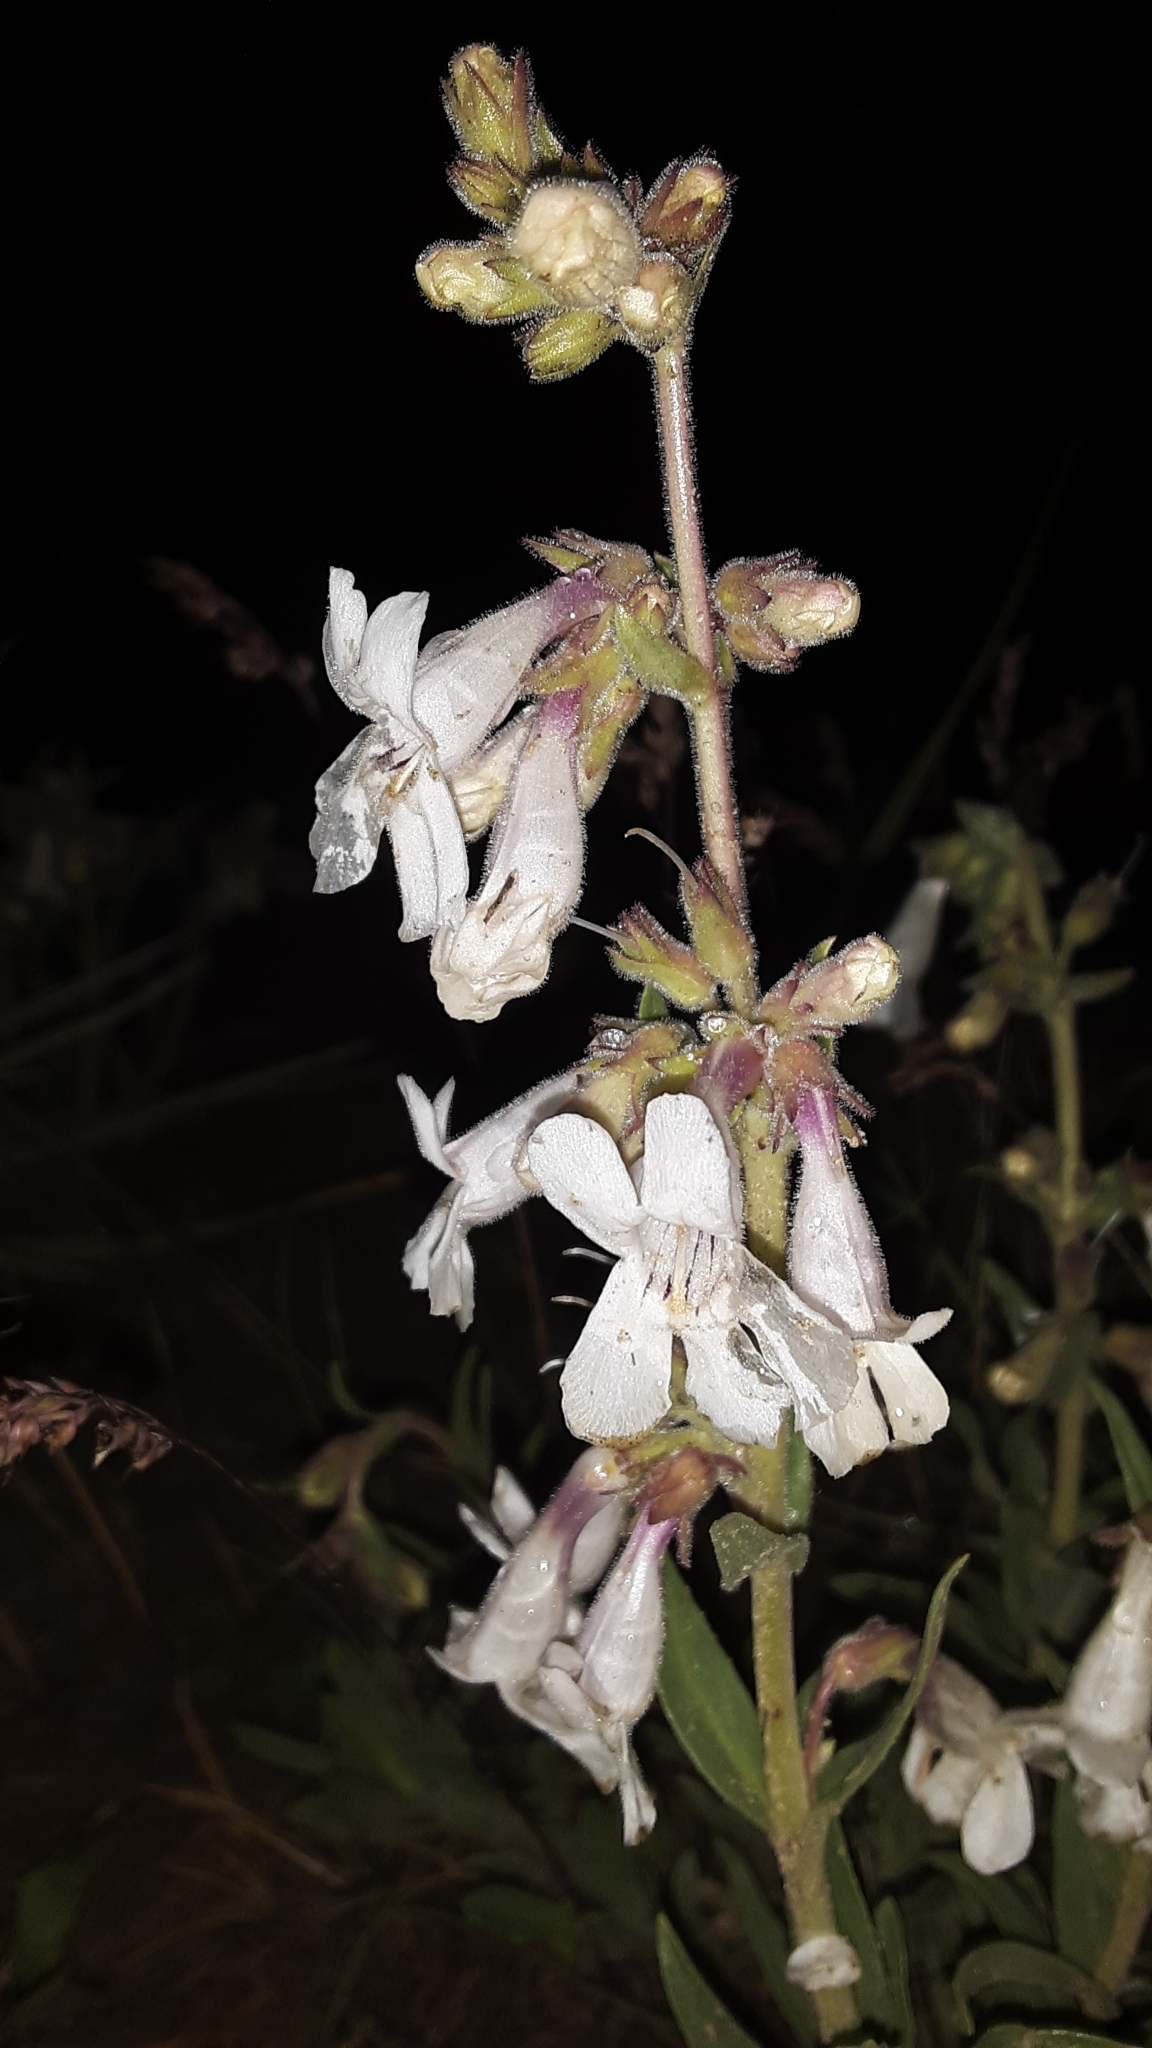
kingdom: Plantae
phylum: Tracheophyta
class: Magnoliopsida
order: Lamiales
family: Plantaginaceae
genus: Penstemon
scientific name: Penstemon albidus
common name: White beardtongue
